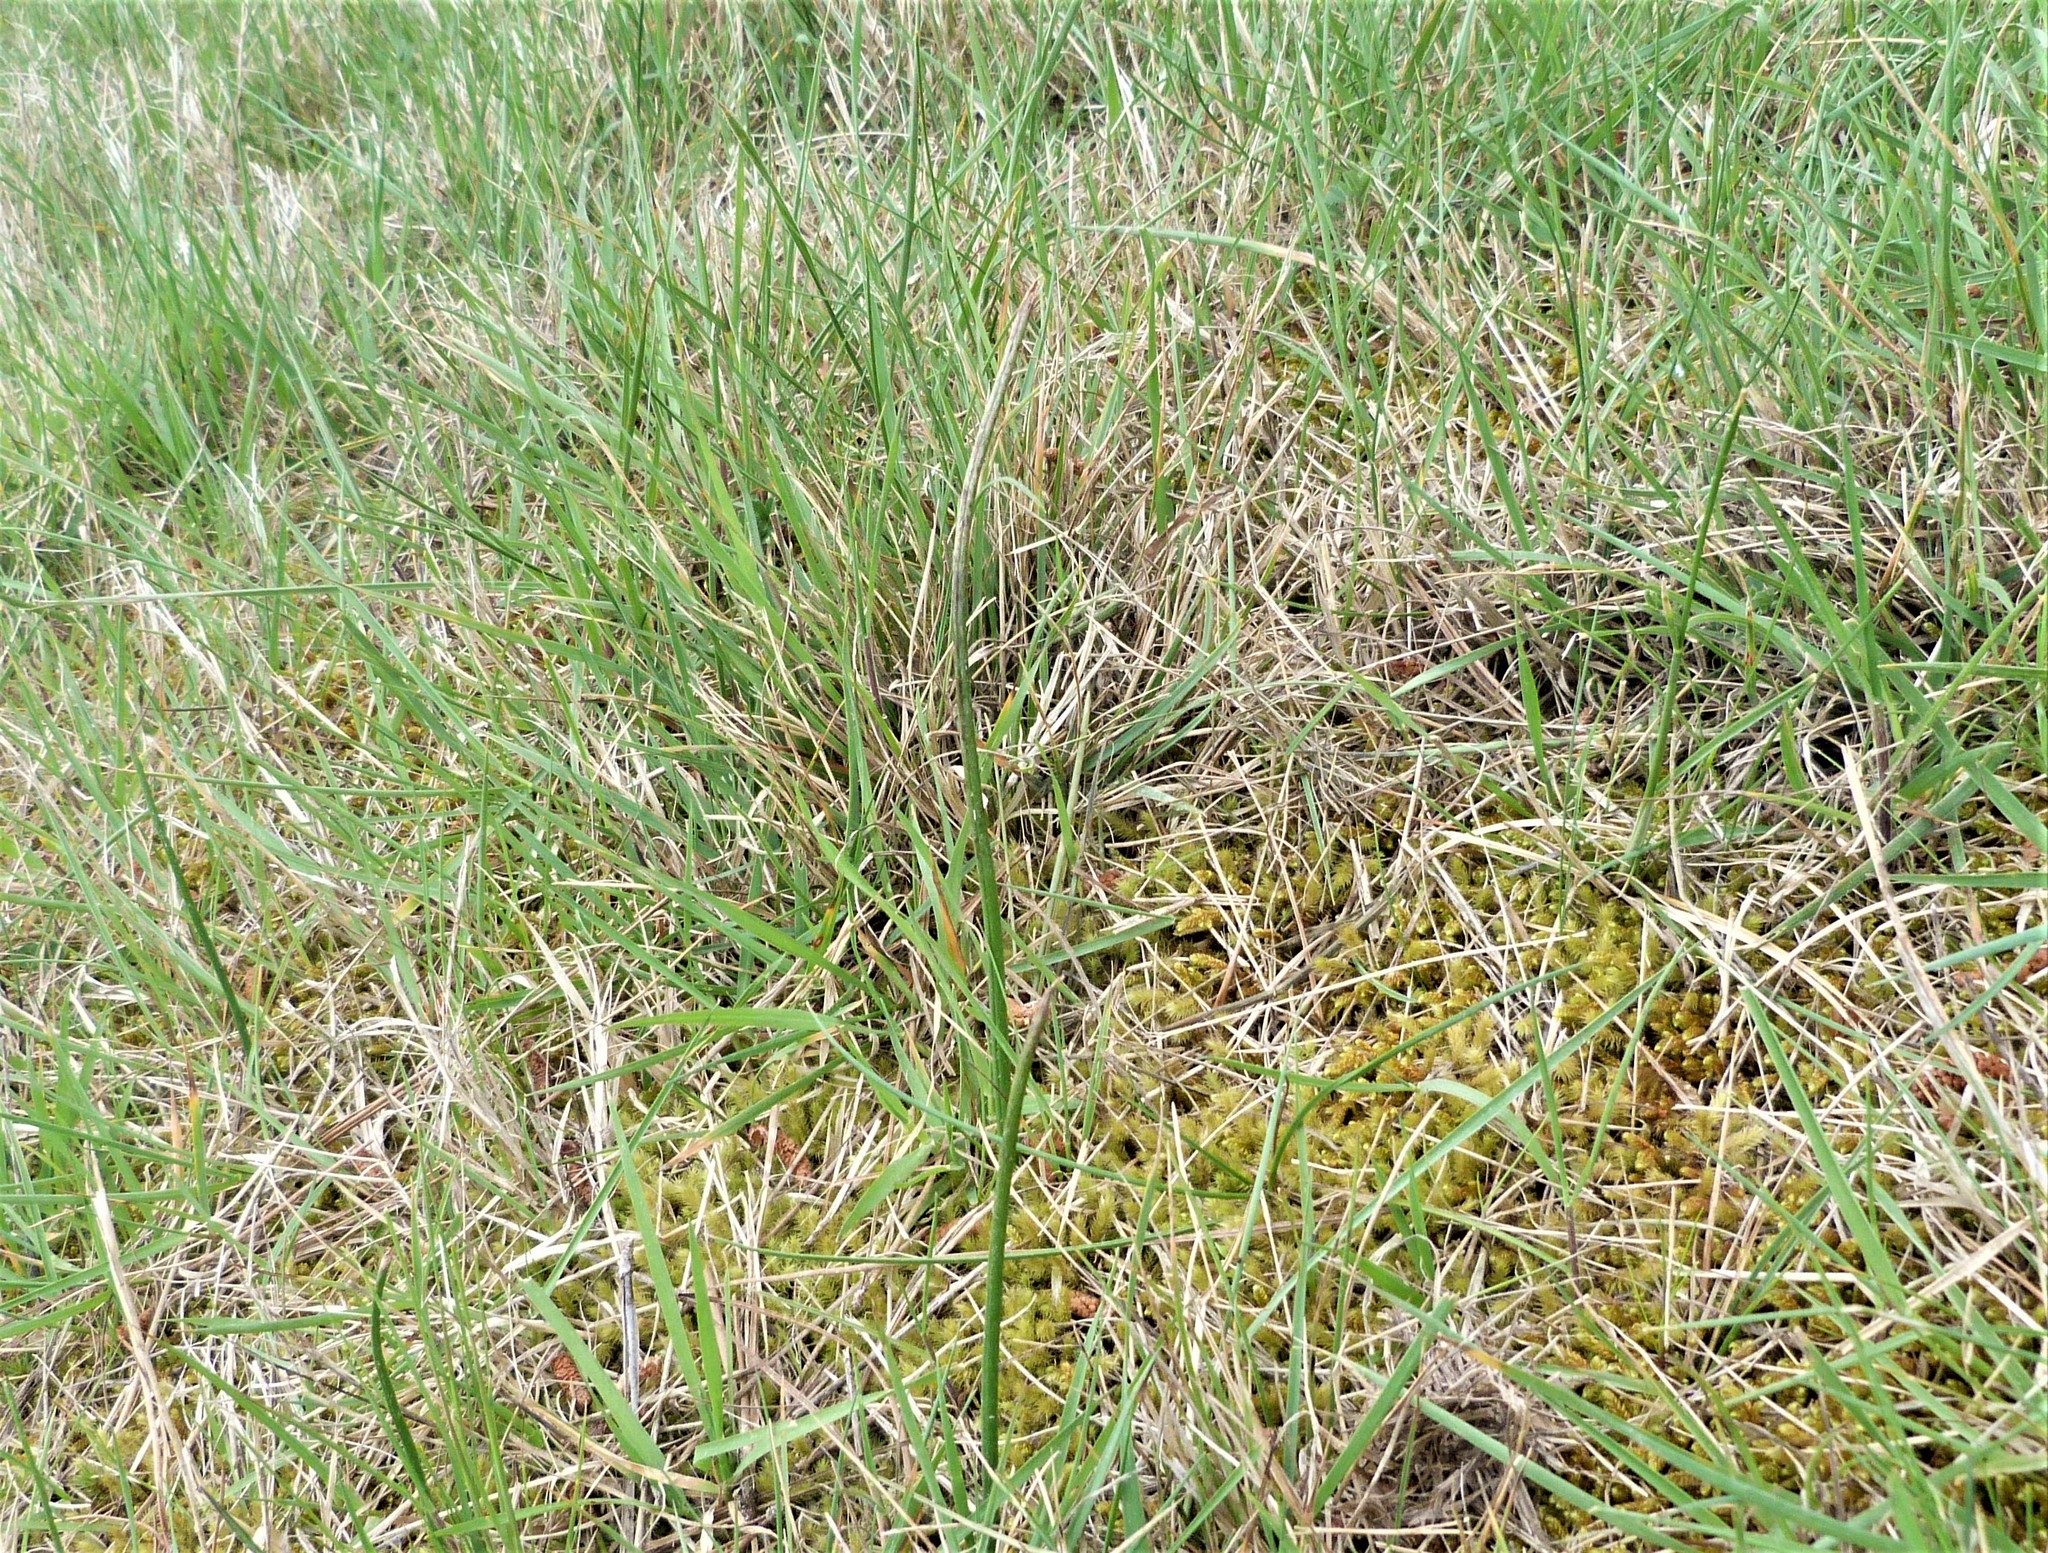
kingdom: Plantae
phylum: Tracheophyta
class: Liliopsida
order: Asparagales
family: Orchidaceae
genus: Microtis
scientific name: Microtis unifolia
